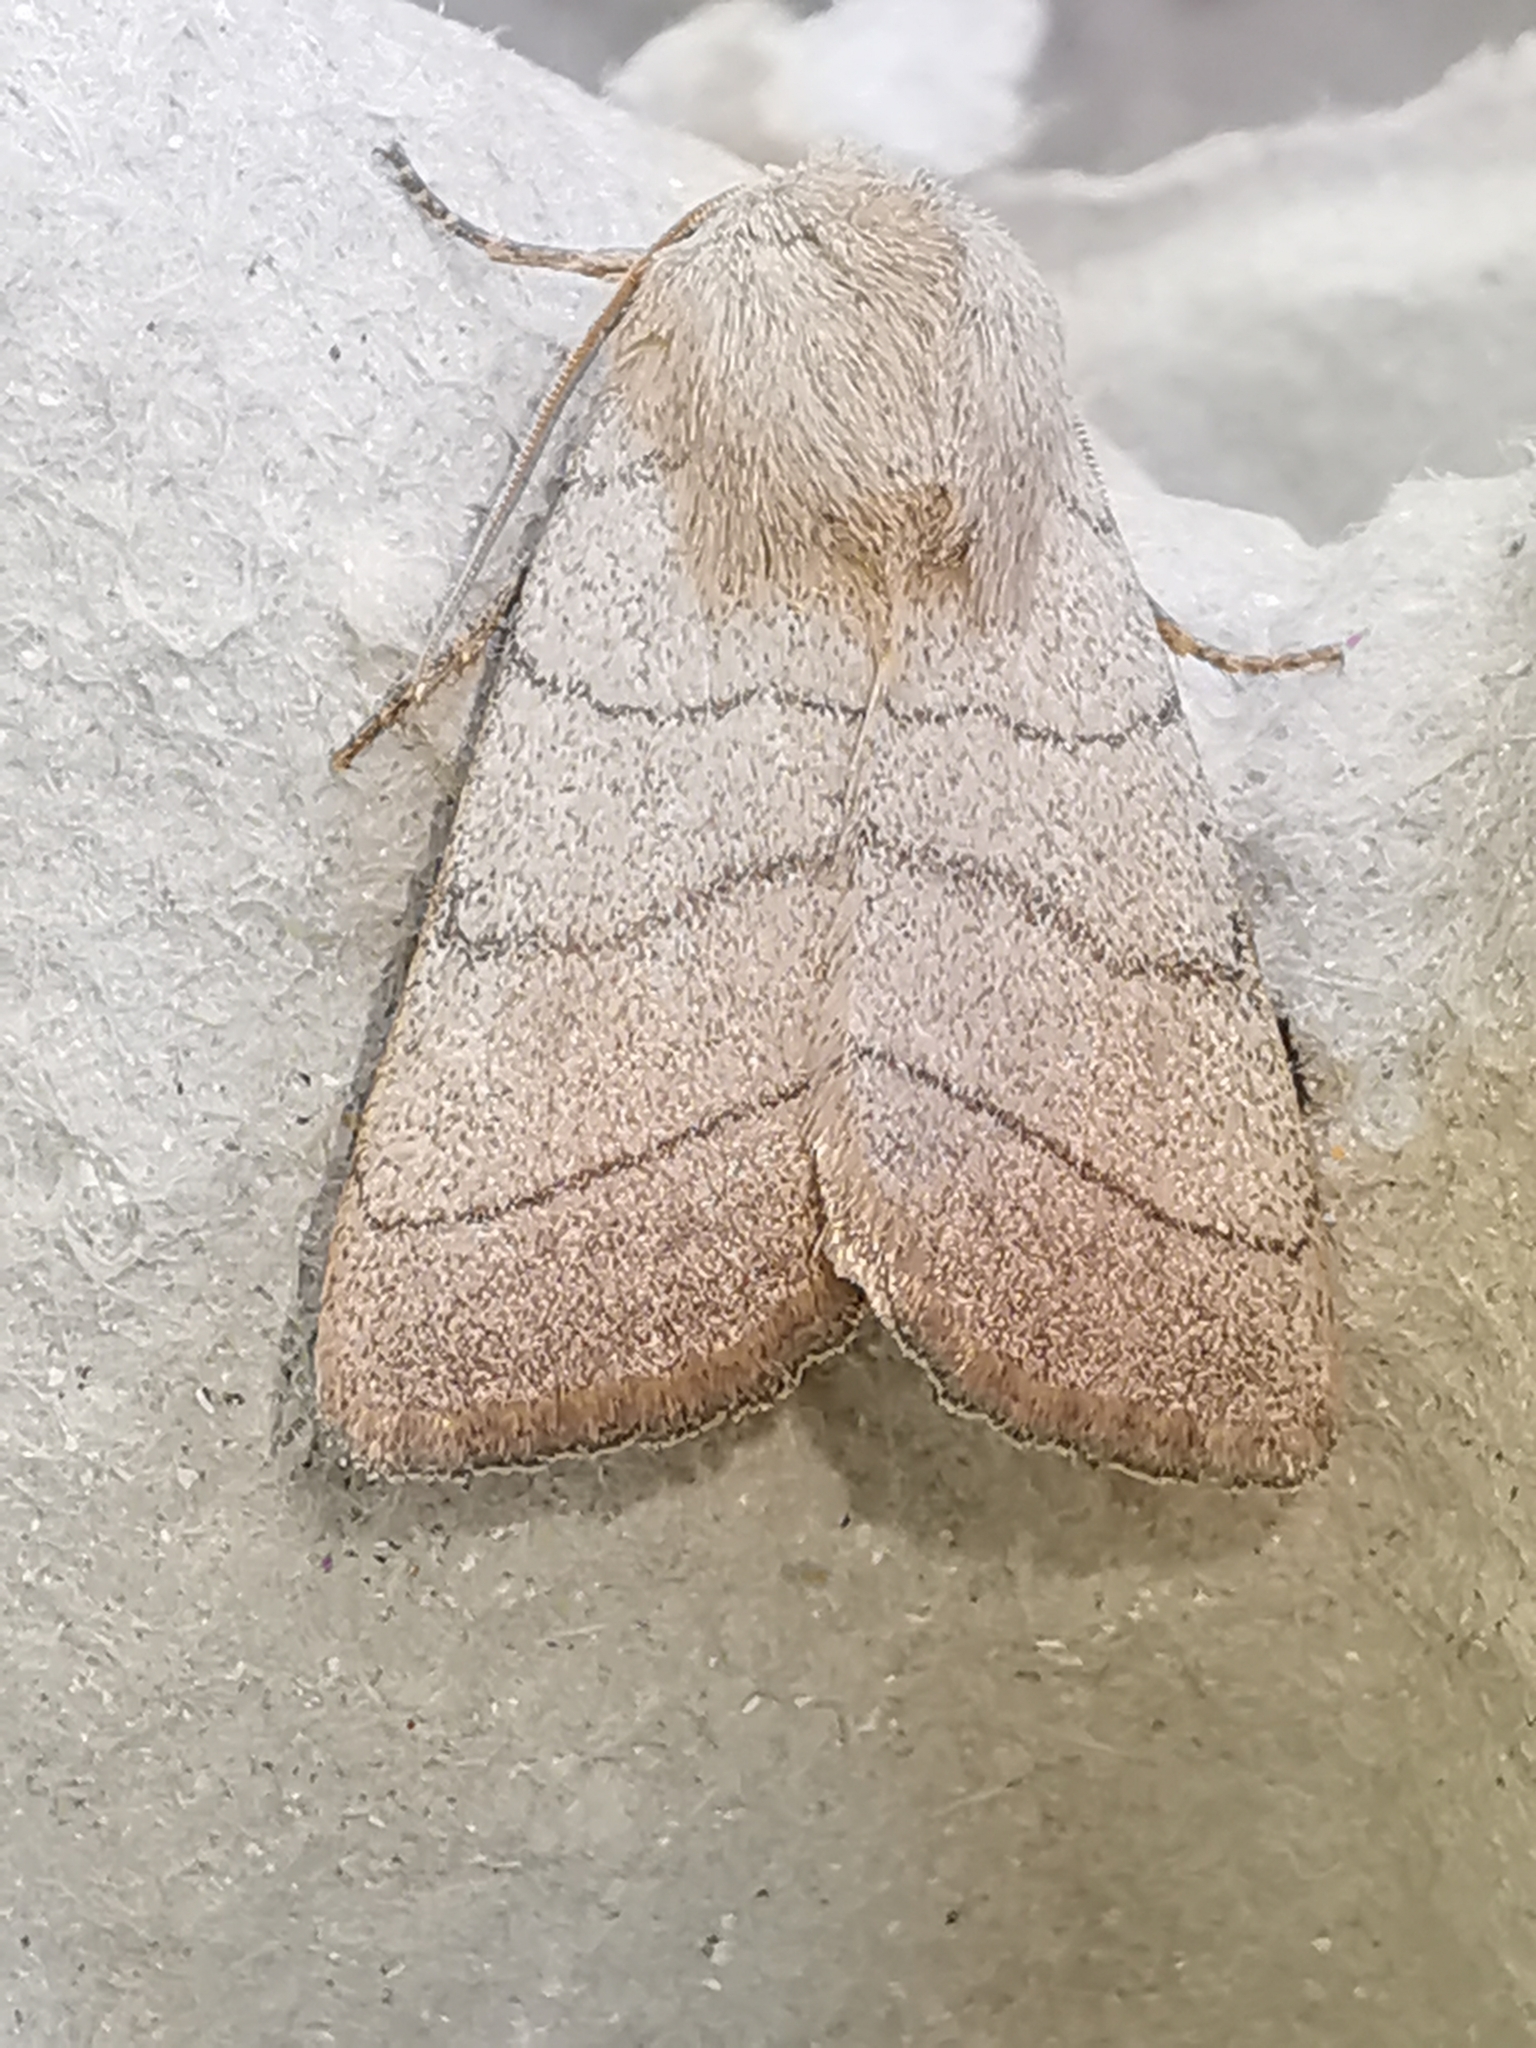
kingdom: Animalia
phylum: Arthropoda
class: Insecta
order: Lepidoptera
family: Noctuidae
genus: Charanyca
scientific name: Charanyca trigrammica
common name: Treble lines
